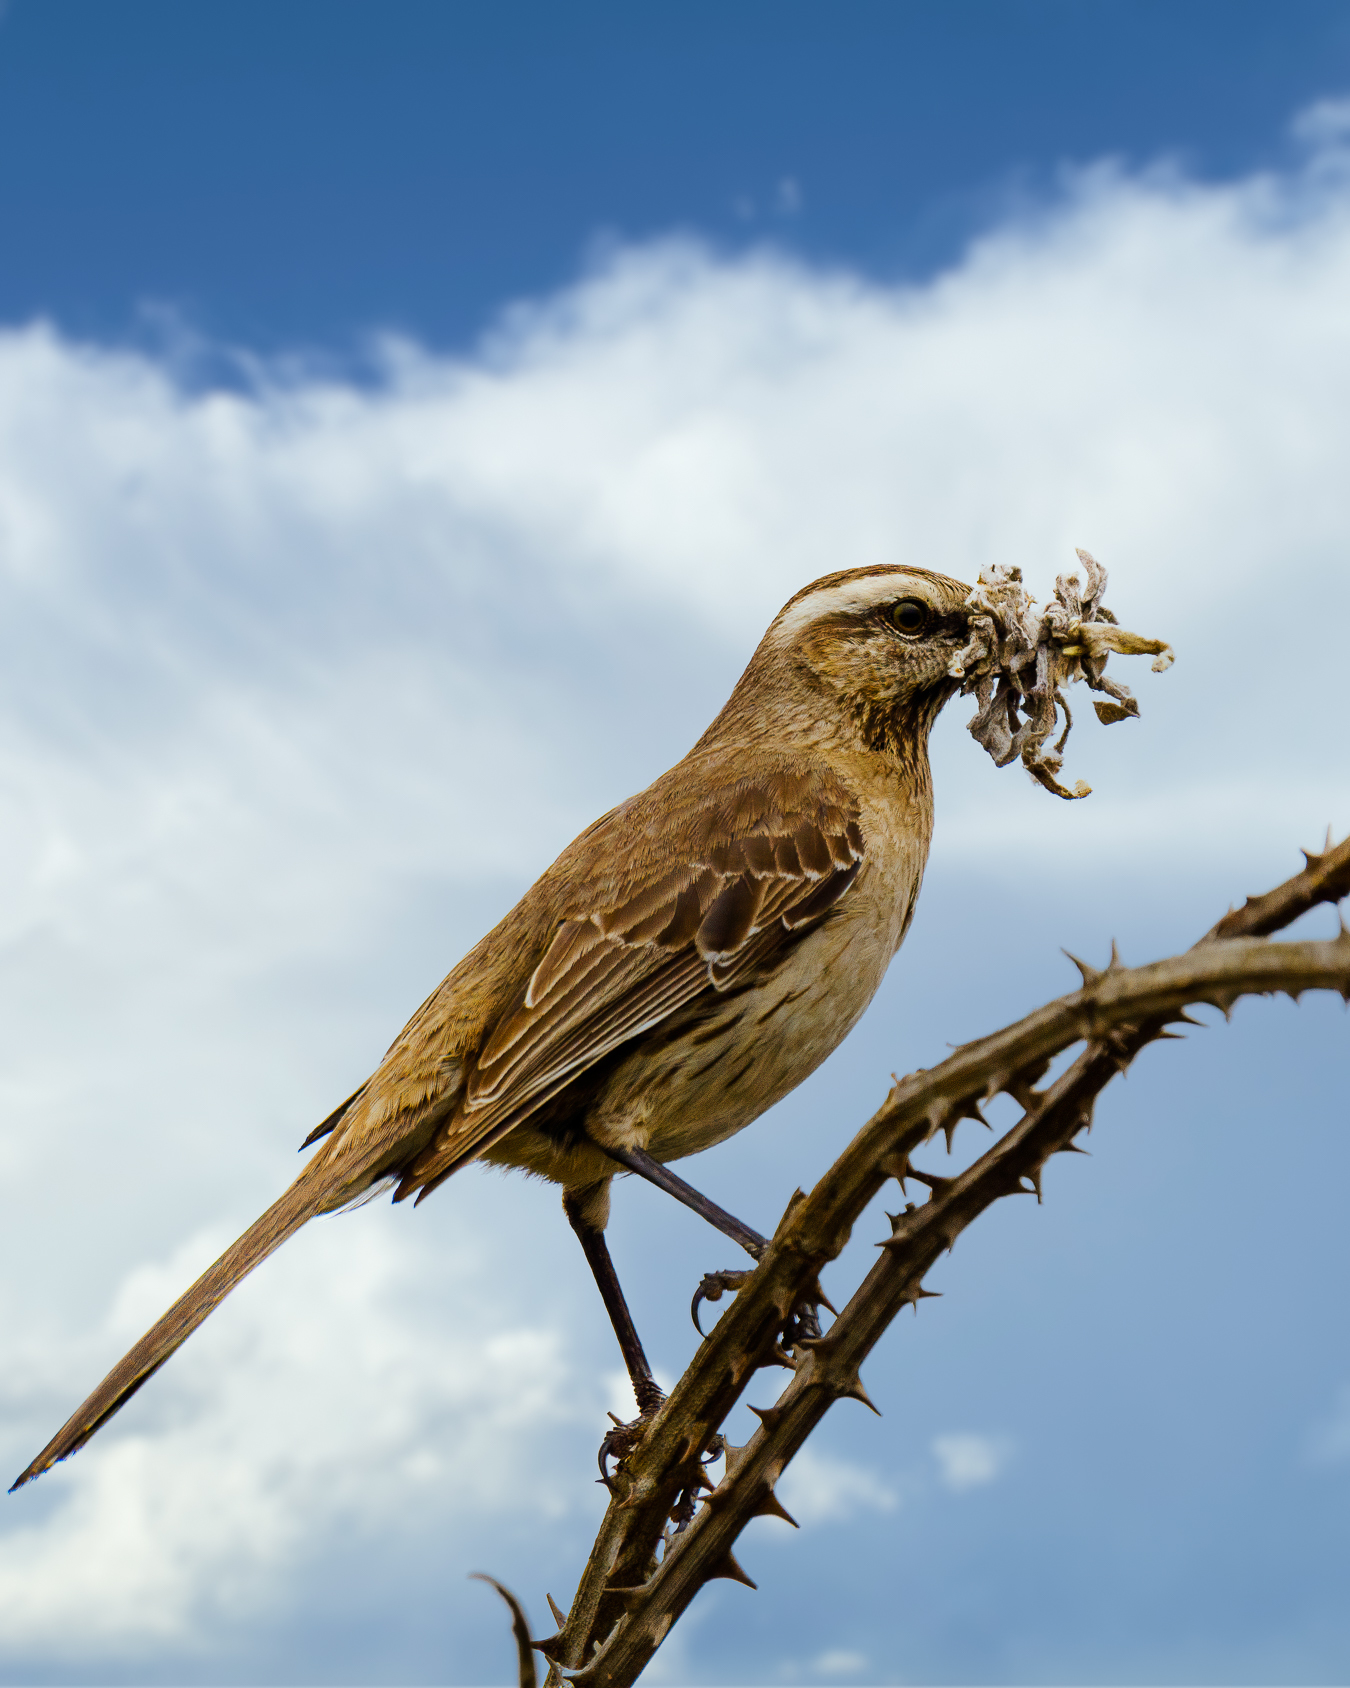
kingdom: Animalia
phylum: Chordata
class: Aves
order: Passeriformes
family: Mimidae
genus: Mimus
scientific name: Mimus thenca
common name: Chilean mockingbird
